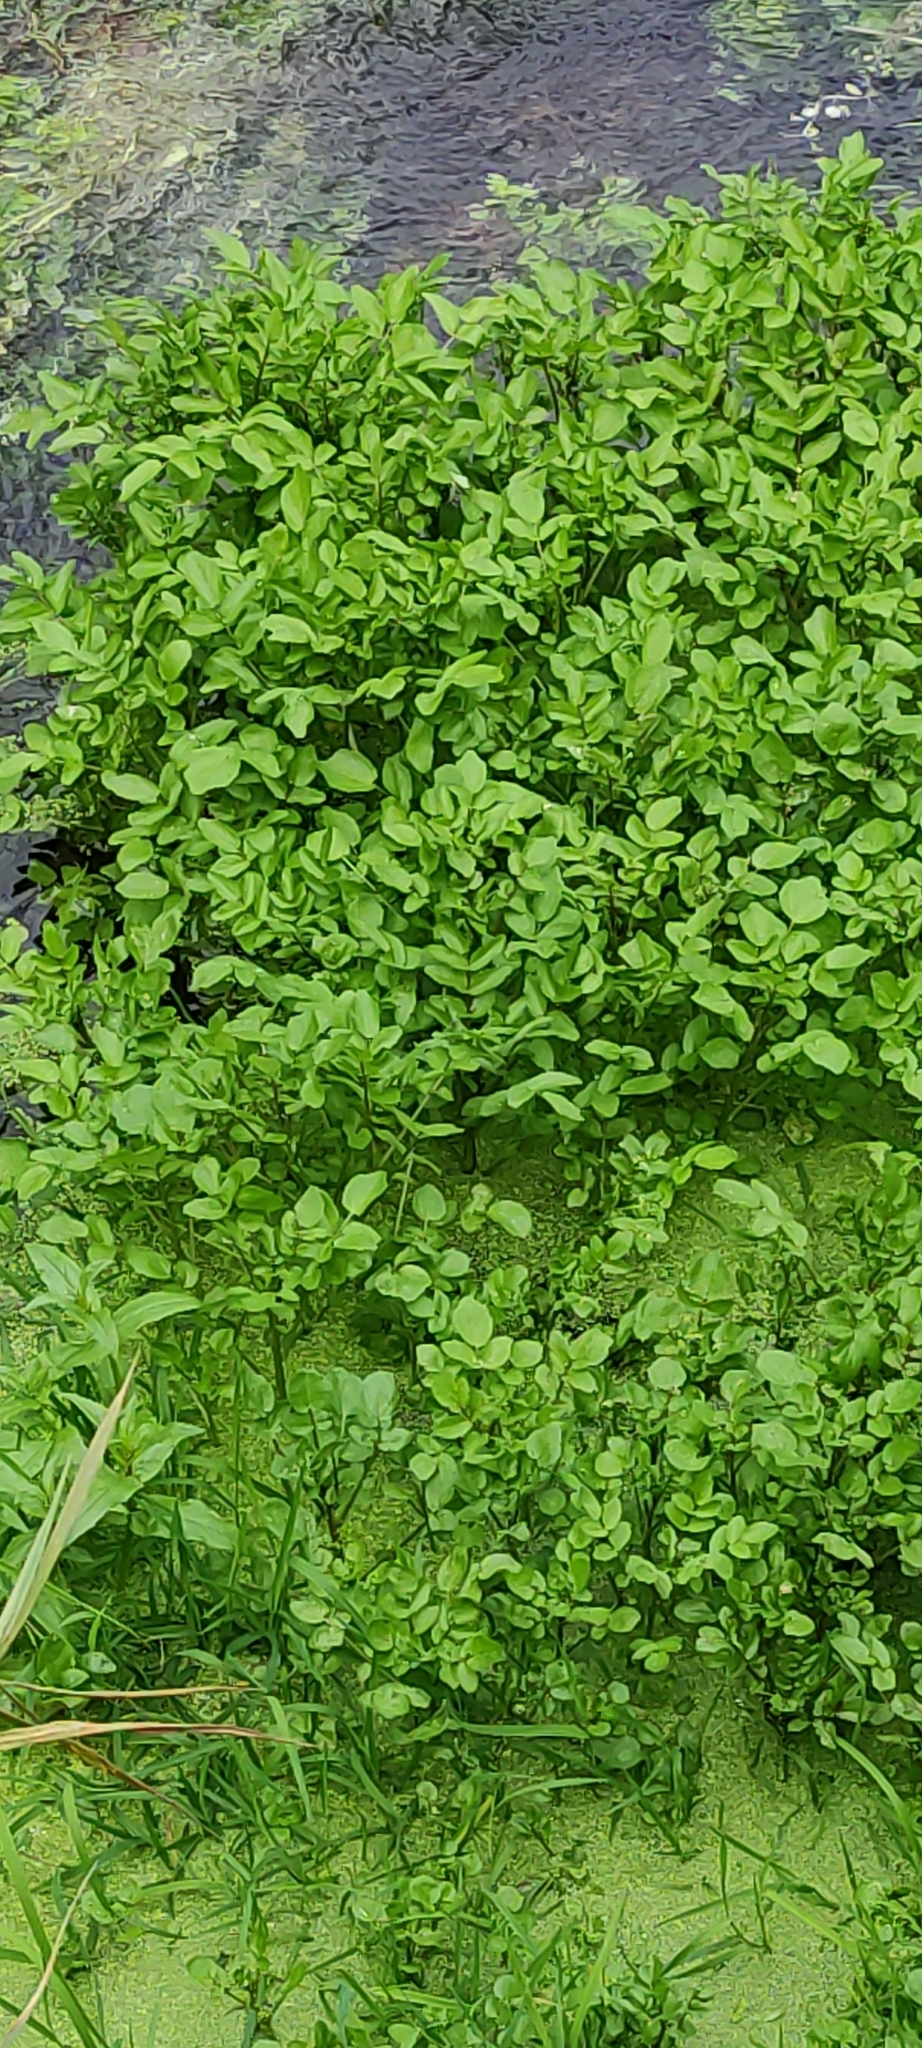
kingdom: Plantae
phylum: Tracheophyta
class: Magnoliopsida
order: Brassicales
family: Brassicaceae
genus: Nasturtium
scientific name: Nasturtium officinale
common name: Watercress
